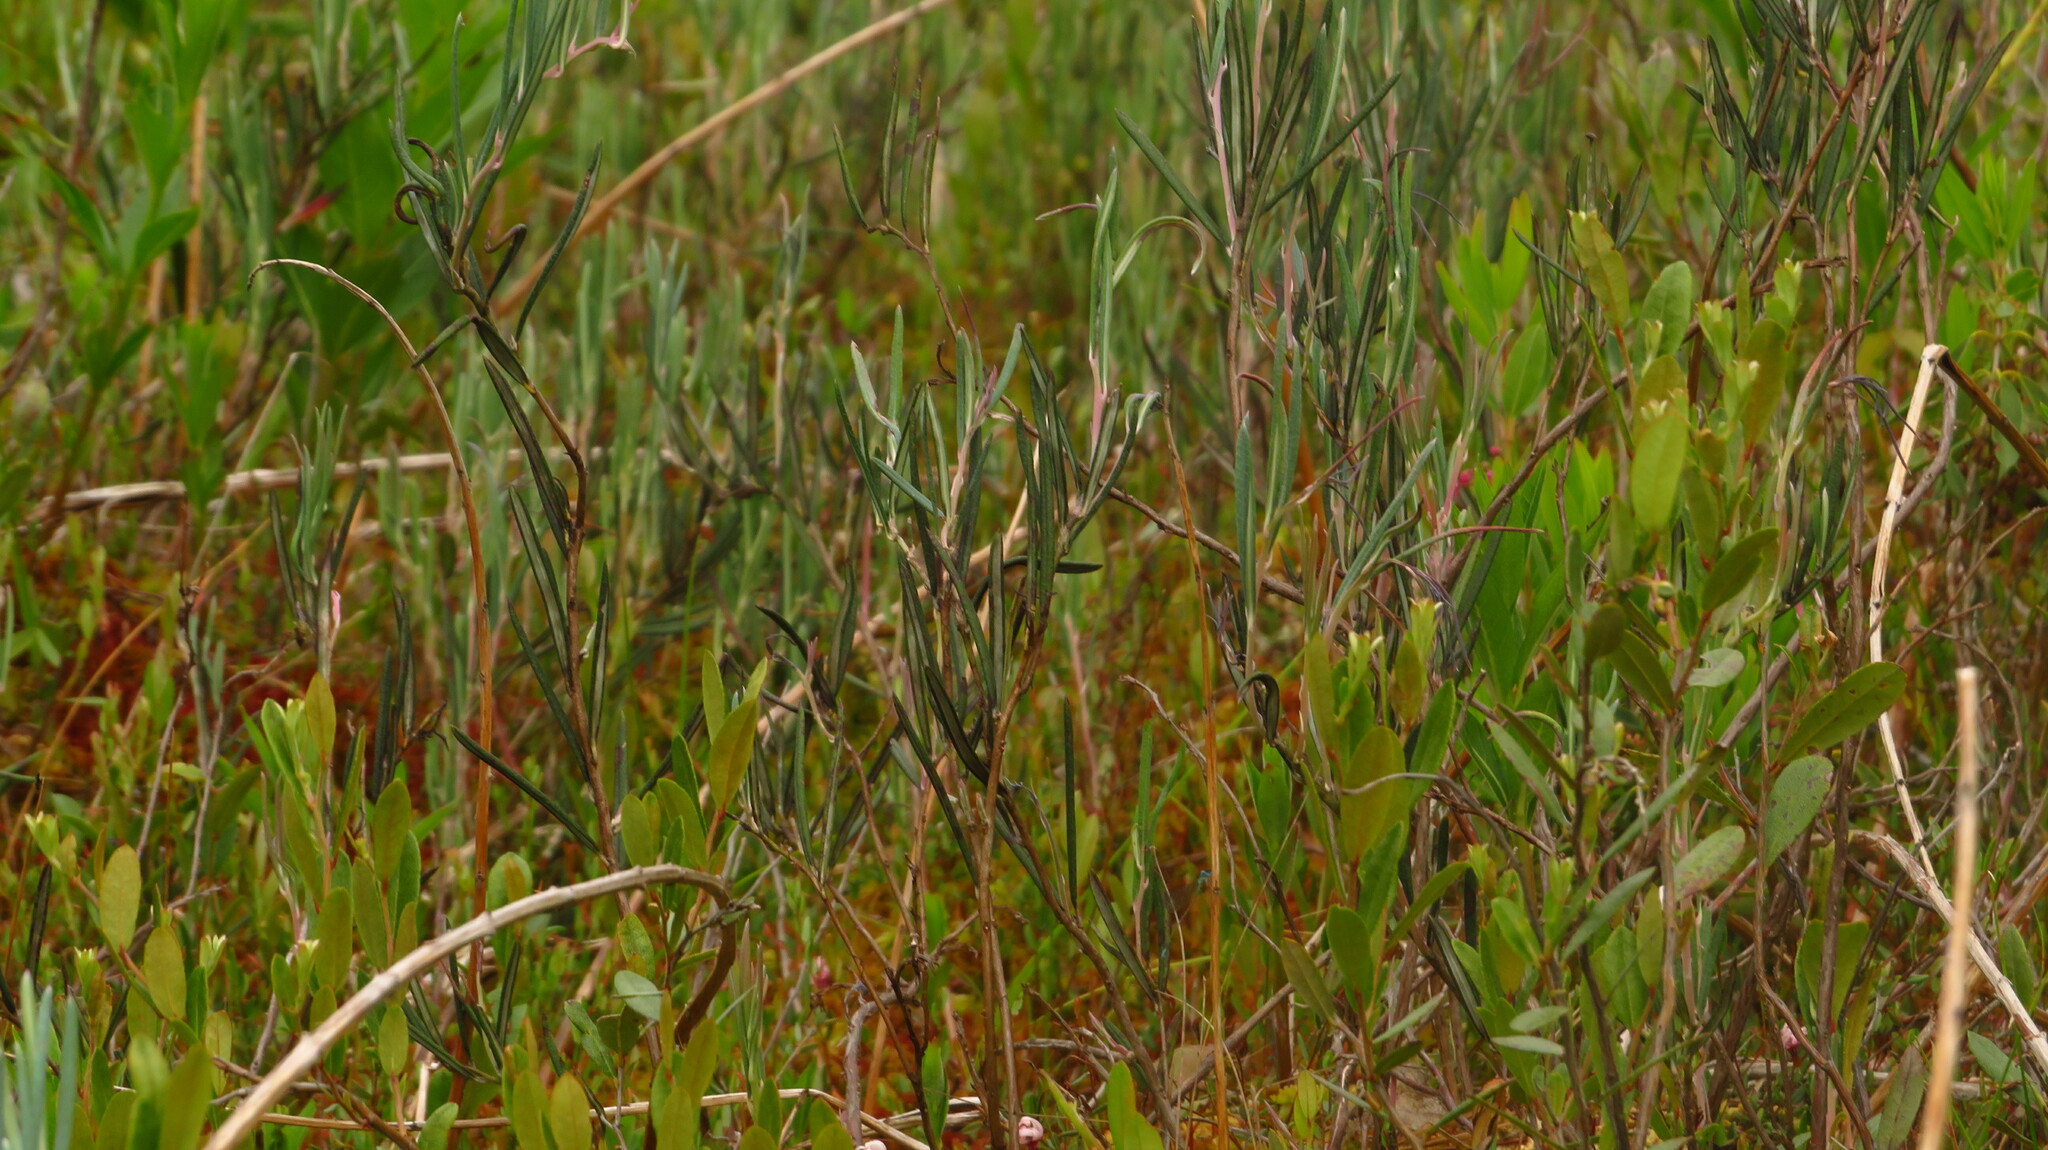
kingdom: Plantae
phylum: Tracheophyta
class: Magnoliopsida
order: Ericales
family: Ericaceae
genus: Andromeda
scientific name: Andromeda polifolia
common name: Bog-rosemary
